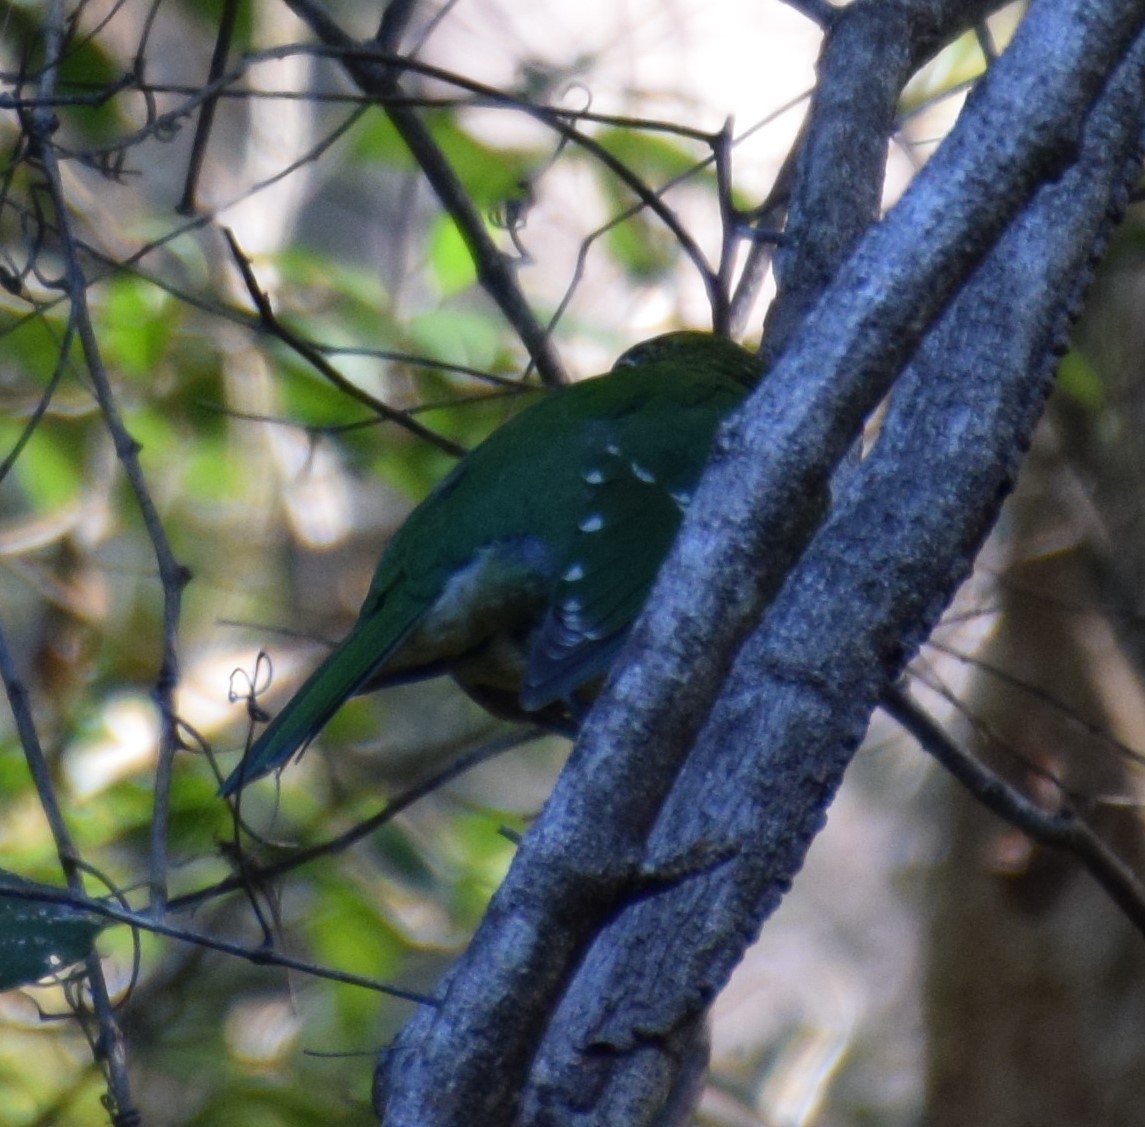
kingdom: Animalia
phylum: Chordata
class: Aves
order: Passeriformes
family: Ptilonorhynchidae
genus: Ailuroedus
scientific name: Ailuroedus crassirostris
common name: Green catbird
